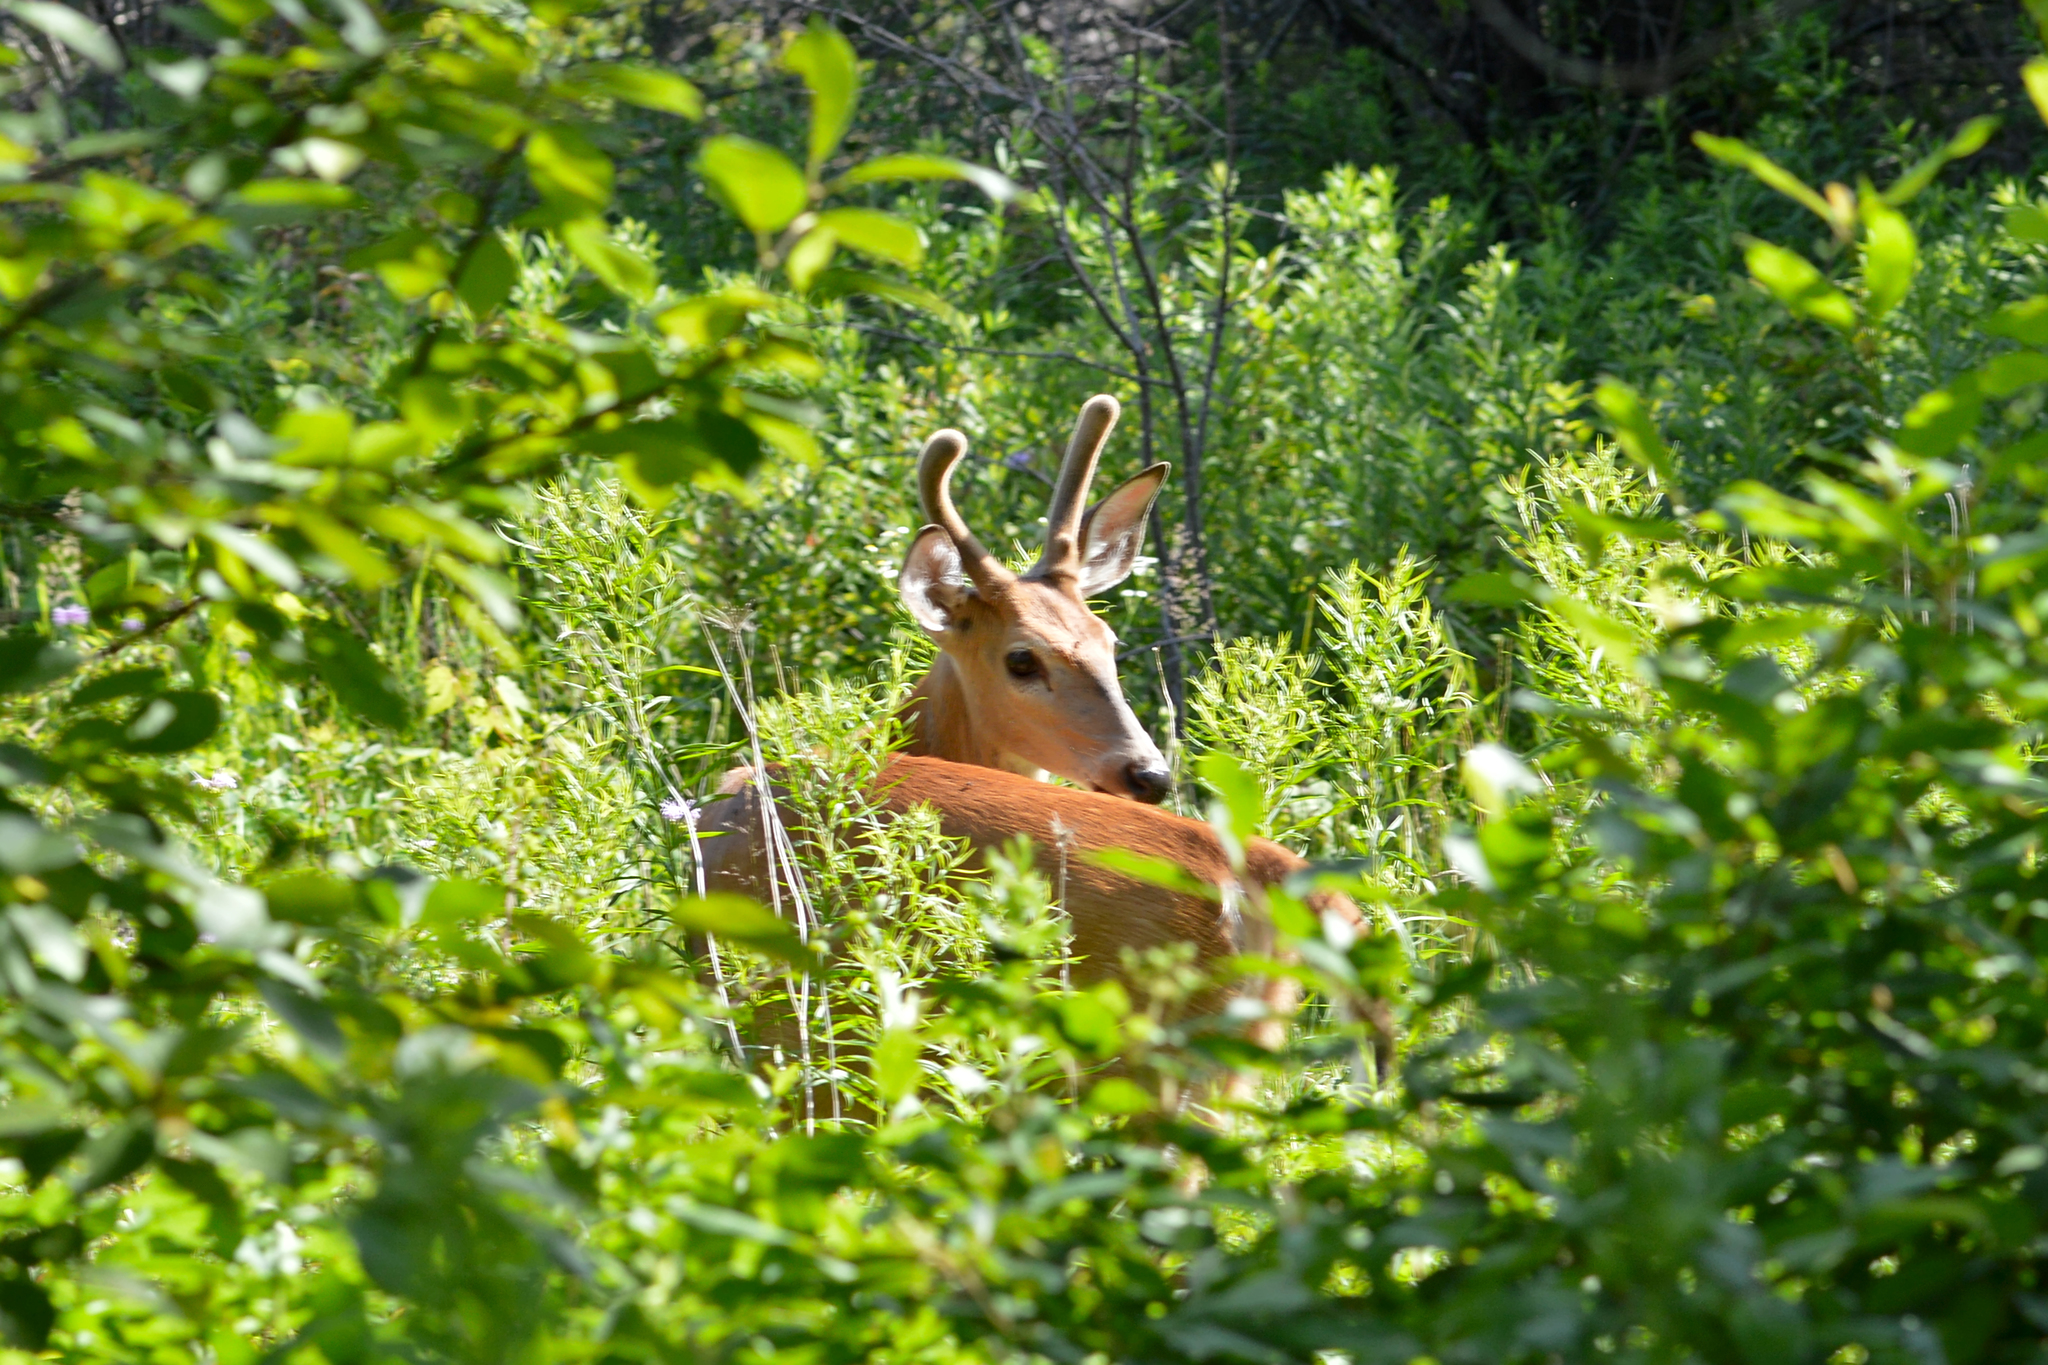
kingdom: Animalia
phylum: Chordata
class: Mammalia
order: Artiodactyla
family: Cervidae
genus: Odocoileus
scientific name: Odocoileus virginianus
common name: White-tailed deer
